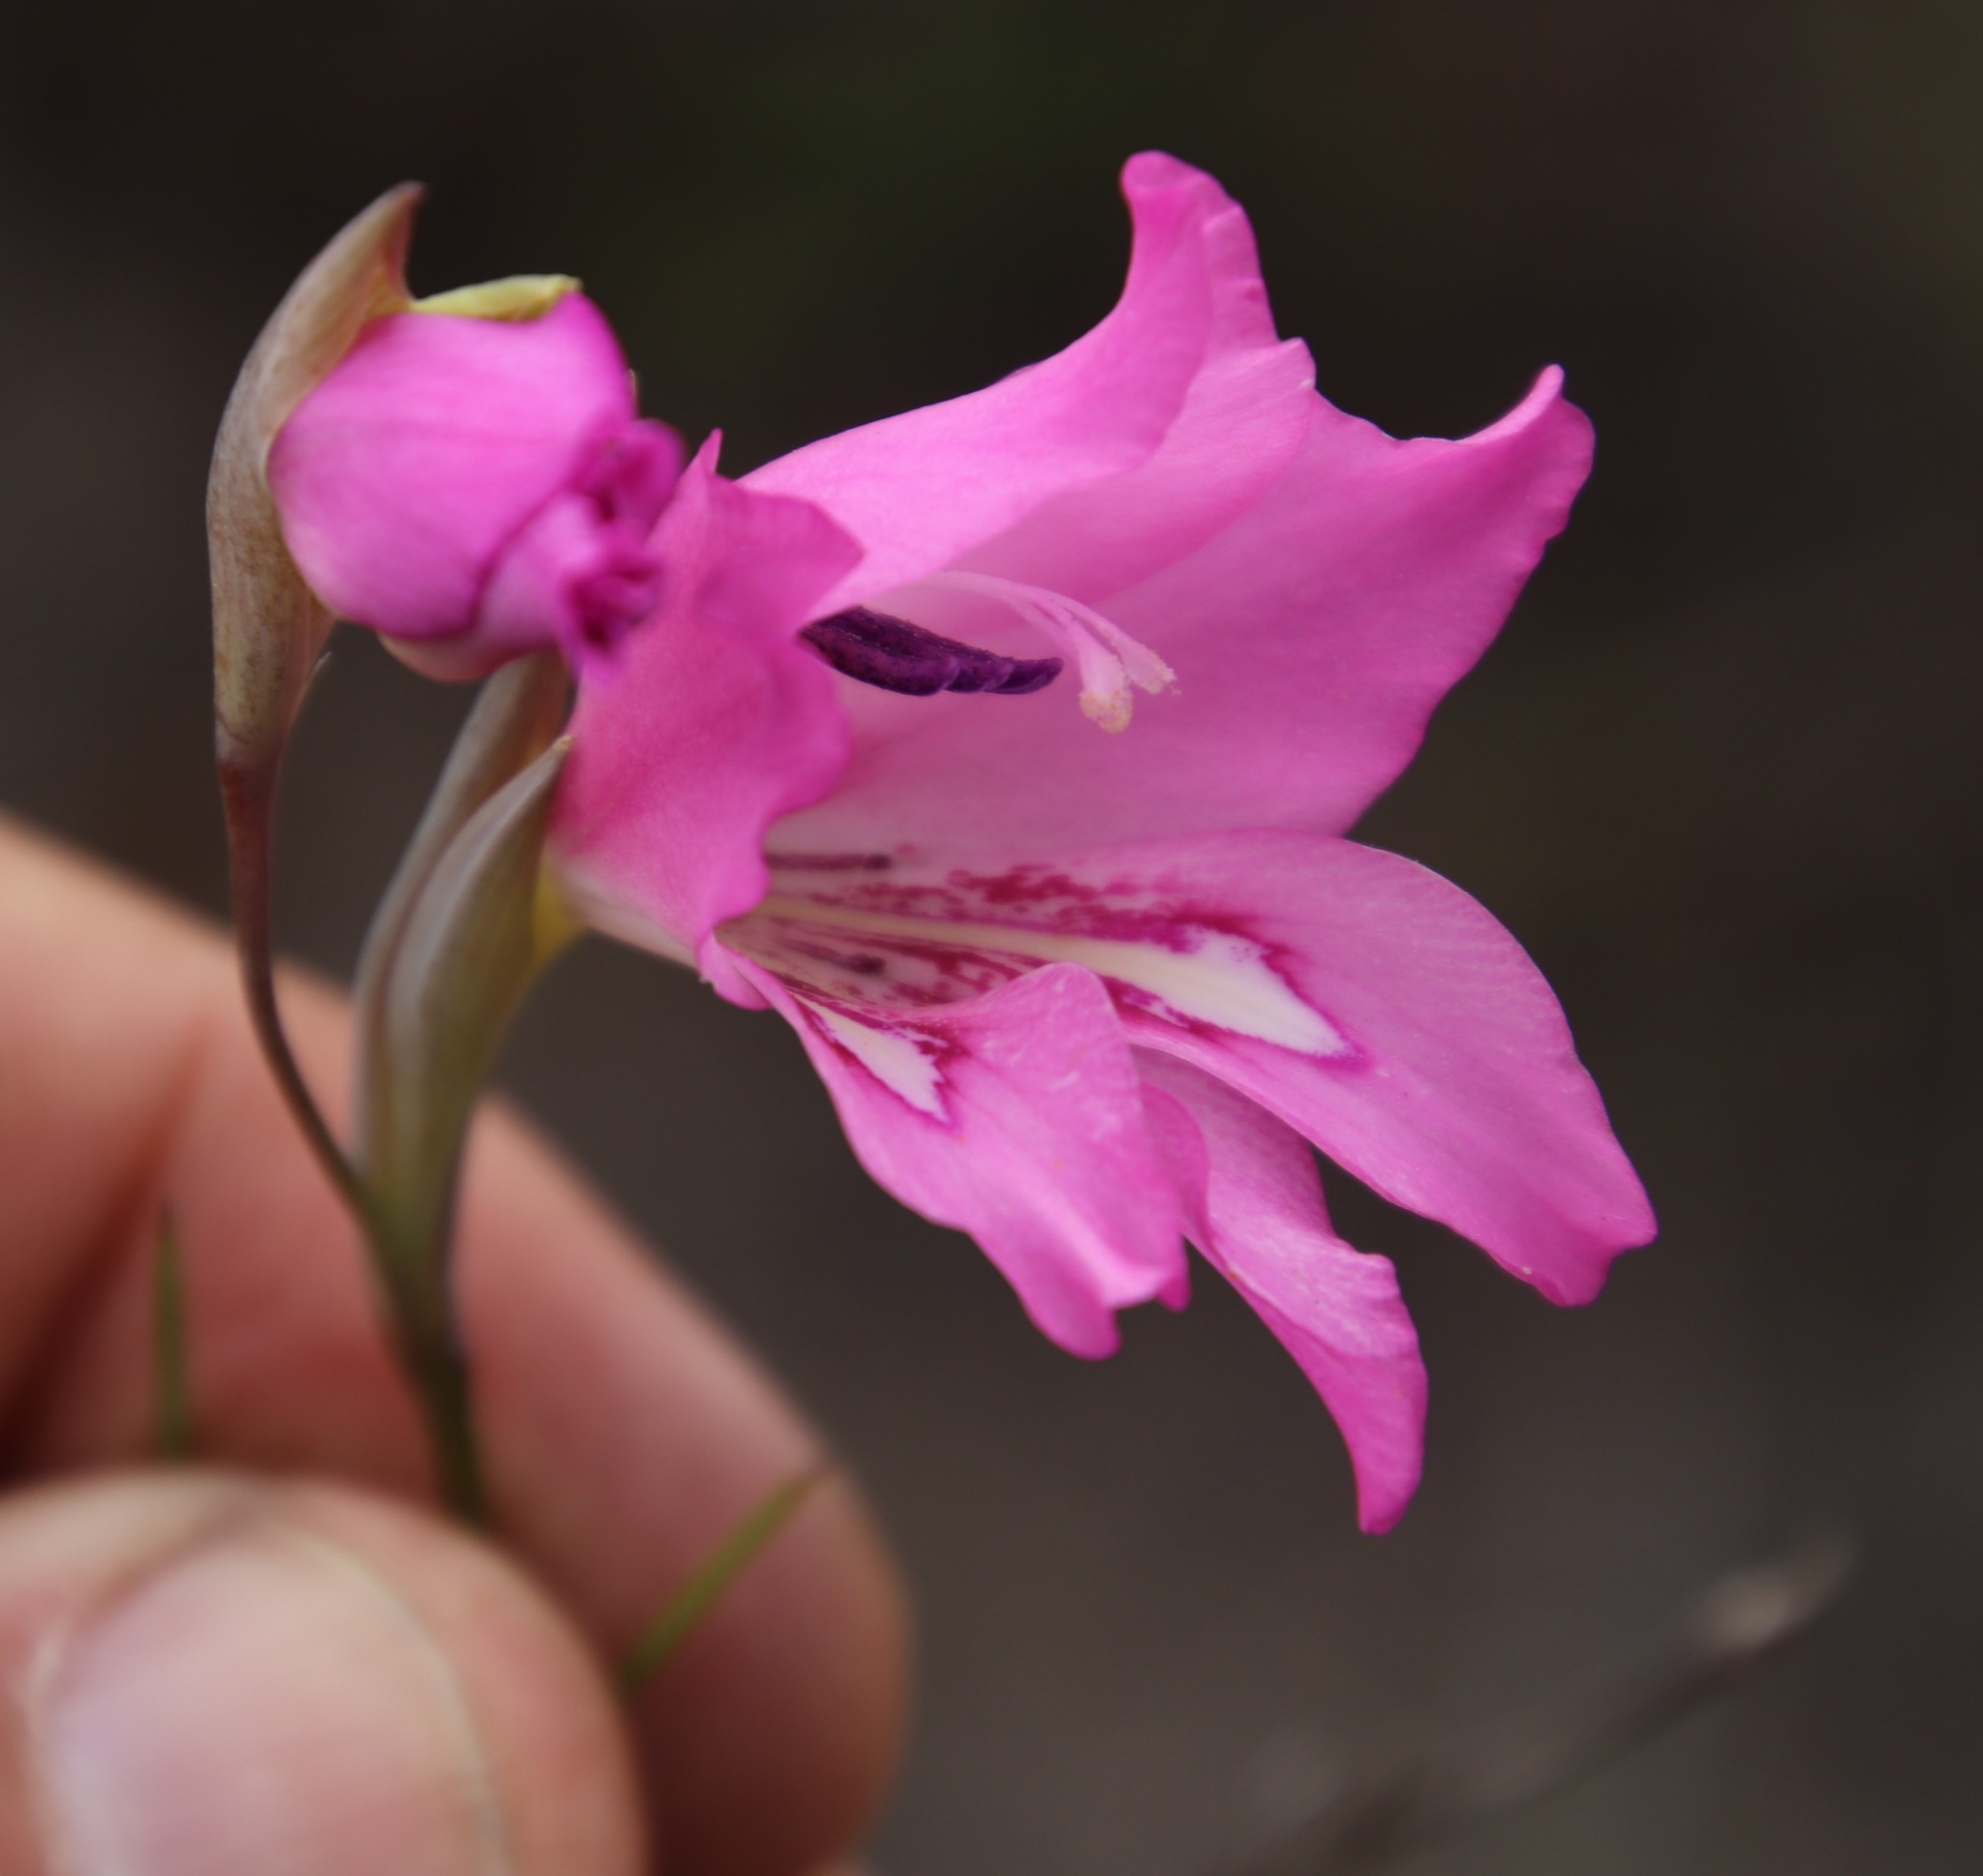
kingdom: Plantae
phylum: Tracheophyta
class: Liliopsida
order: Asparagales
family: Iridaceae
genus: Gladiolus
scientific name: Gladiolus ornatus
